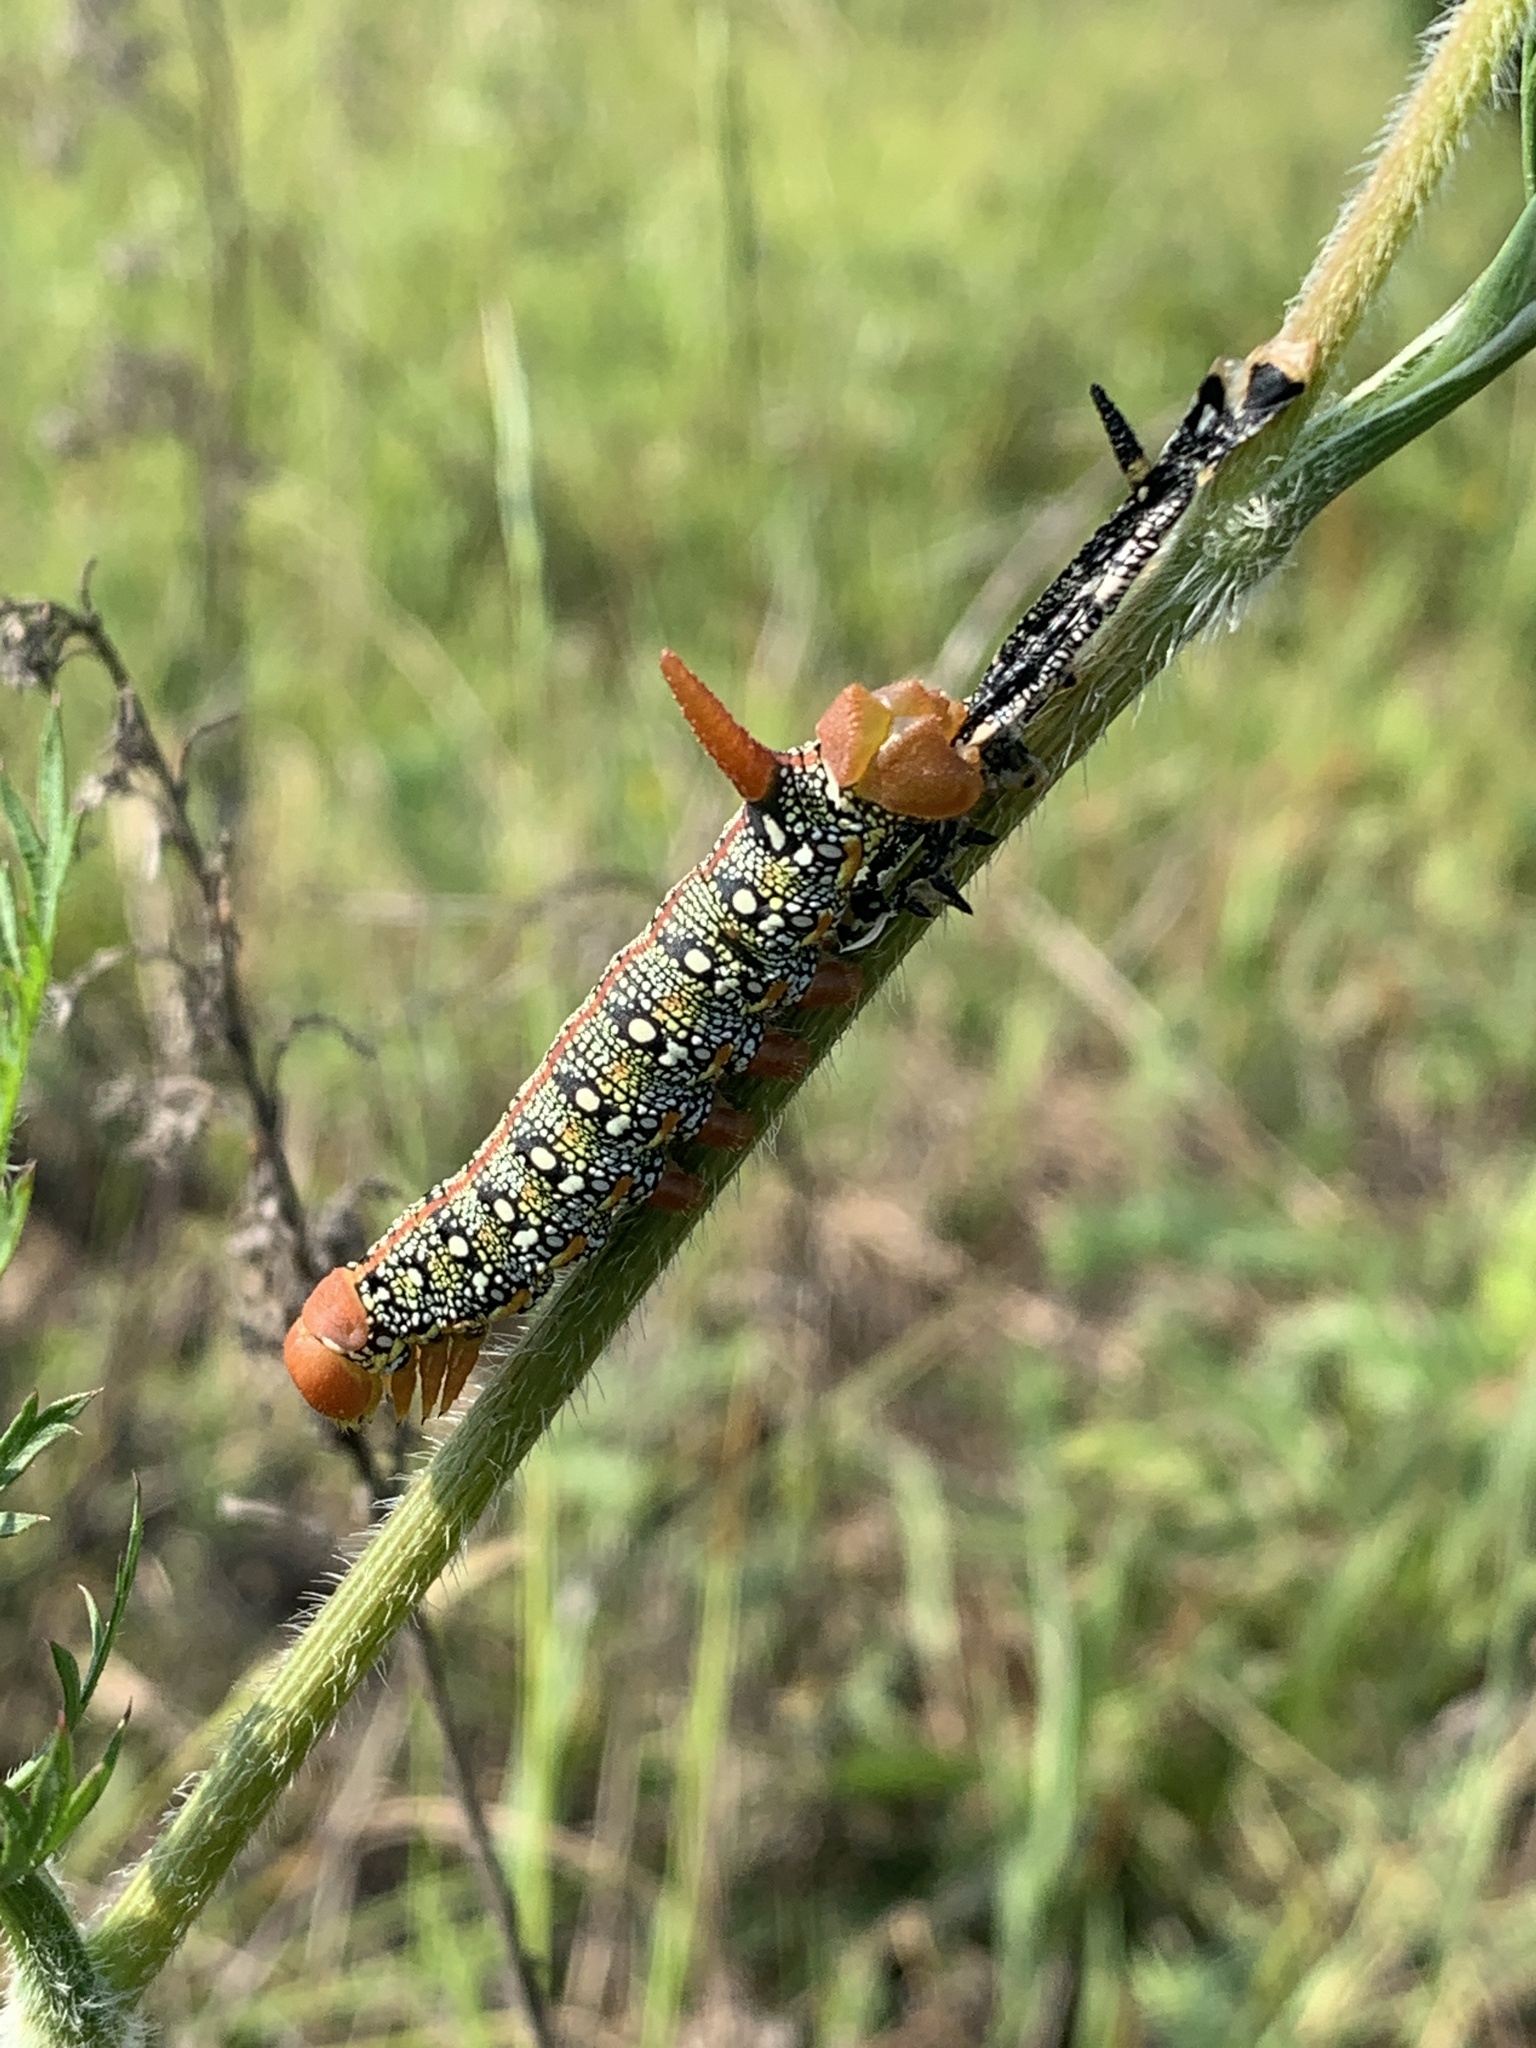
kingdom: Animalia
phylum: Arthropoda
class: Insecta
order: Lepidoptera
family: Sphingidae
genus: Hyles
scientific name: Hyles euphorbiae
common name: Spurge hawk-moth
